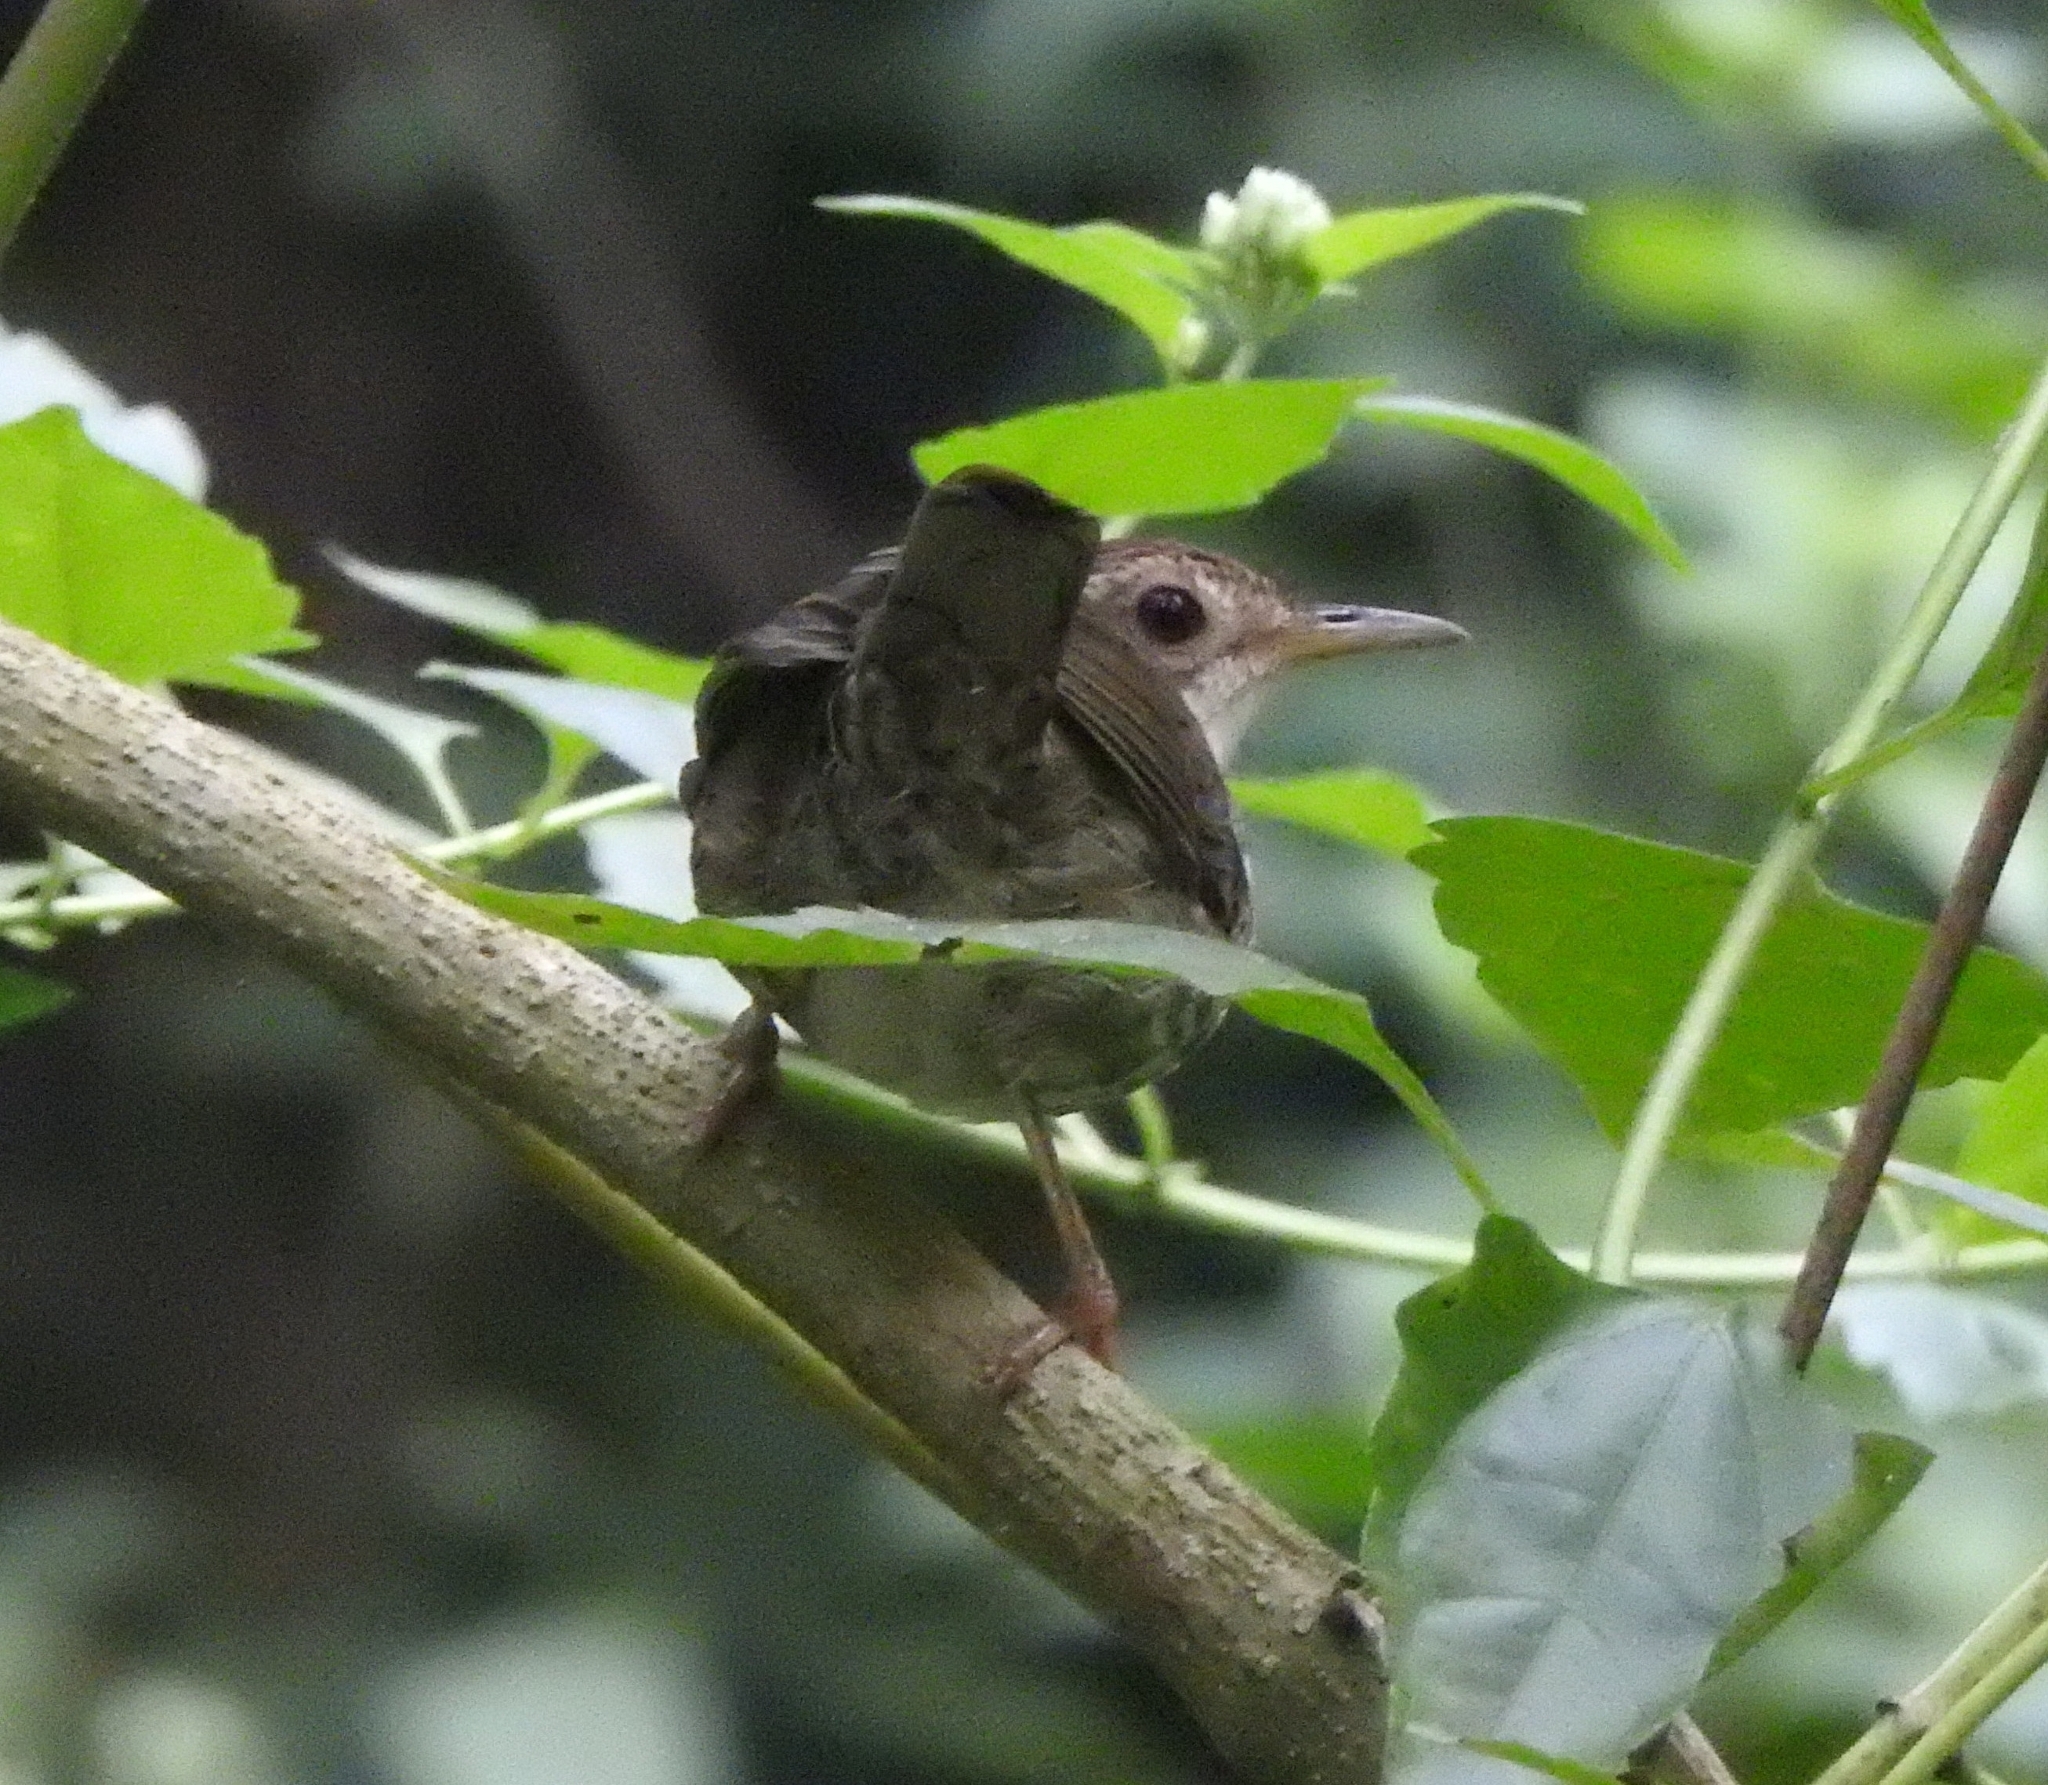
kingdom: Animalia
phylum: Chordata
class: Aves
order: Passeriformes
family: Pellorneidae
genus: Pellorneum
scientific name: Pellorneum ruficeps
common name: Puff-throated babbler
